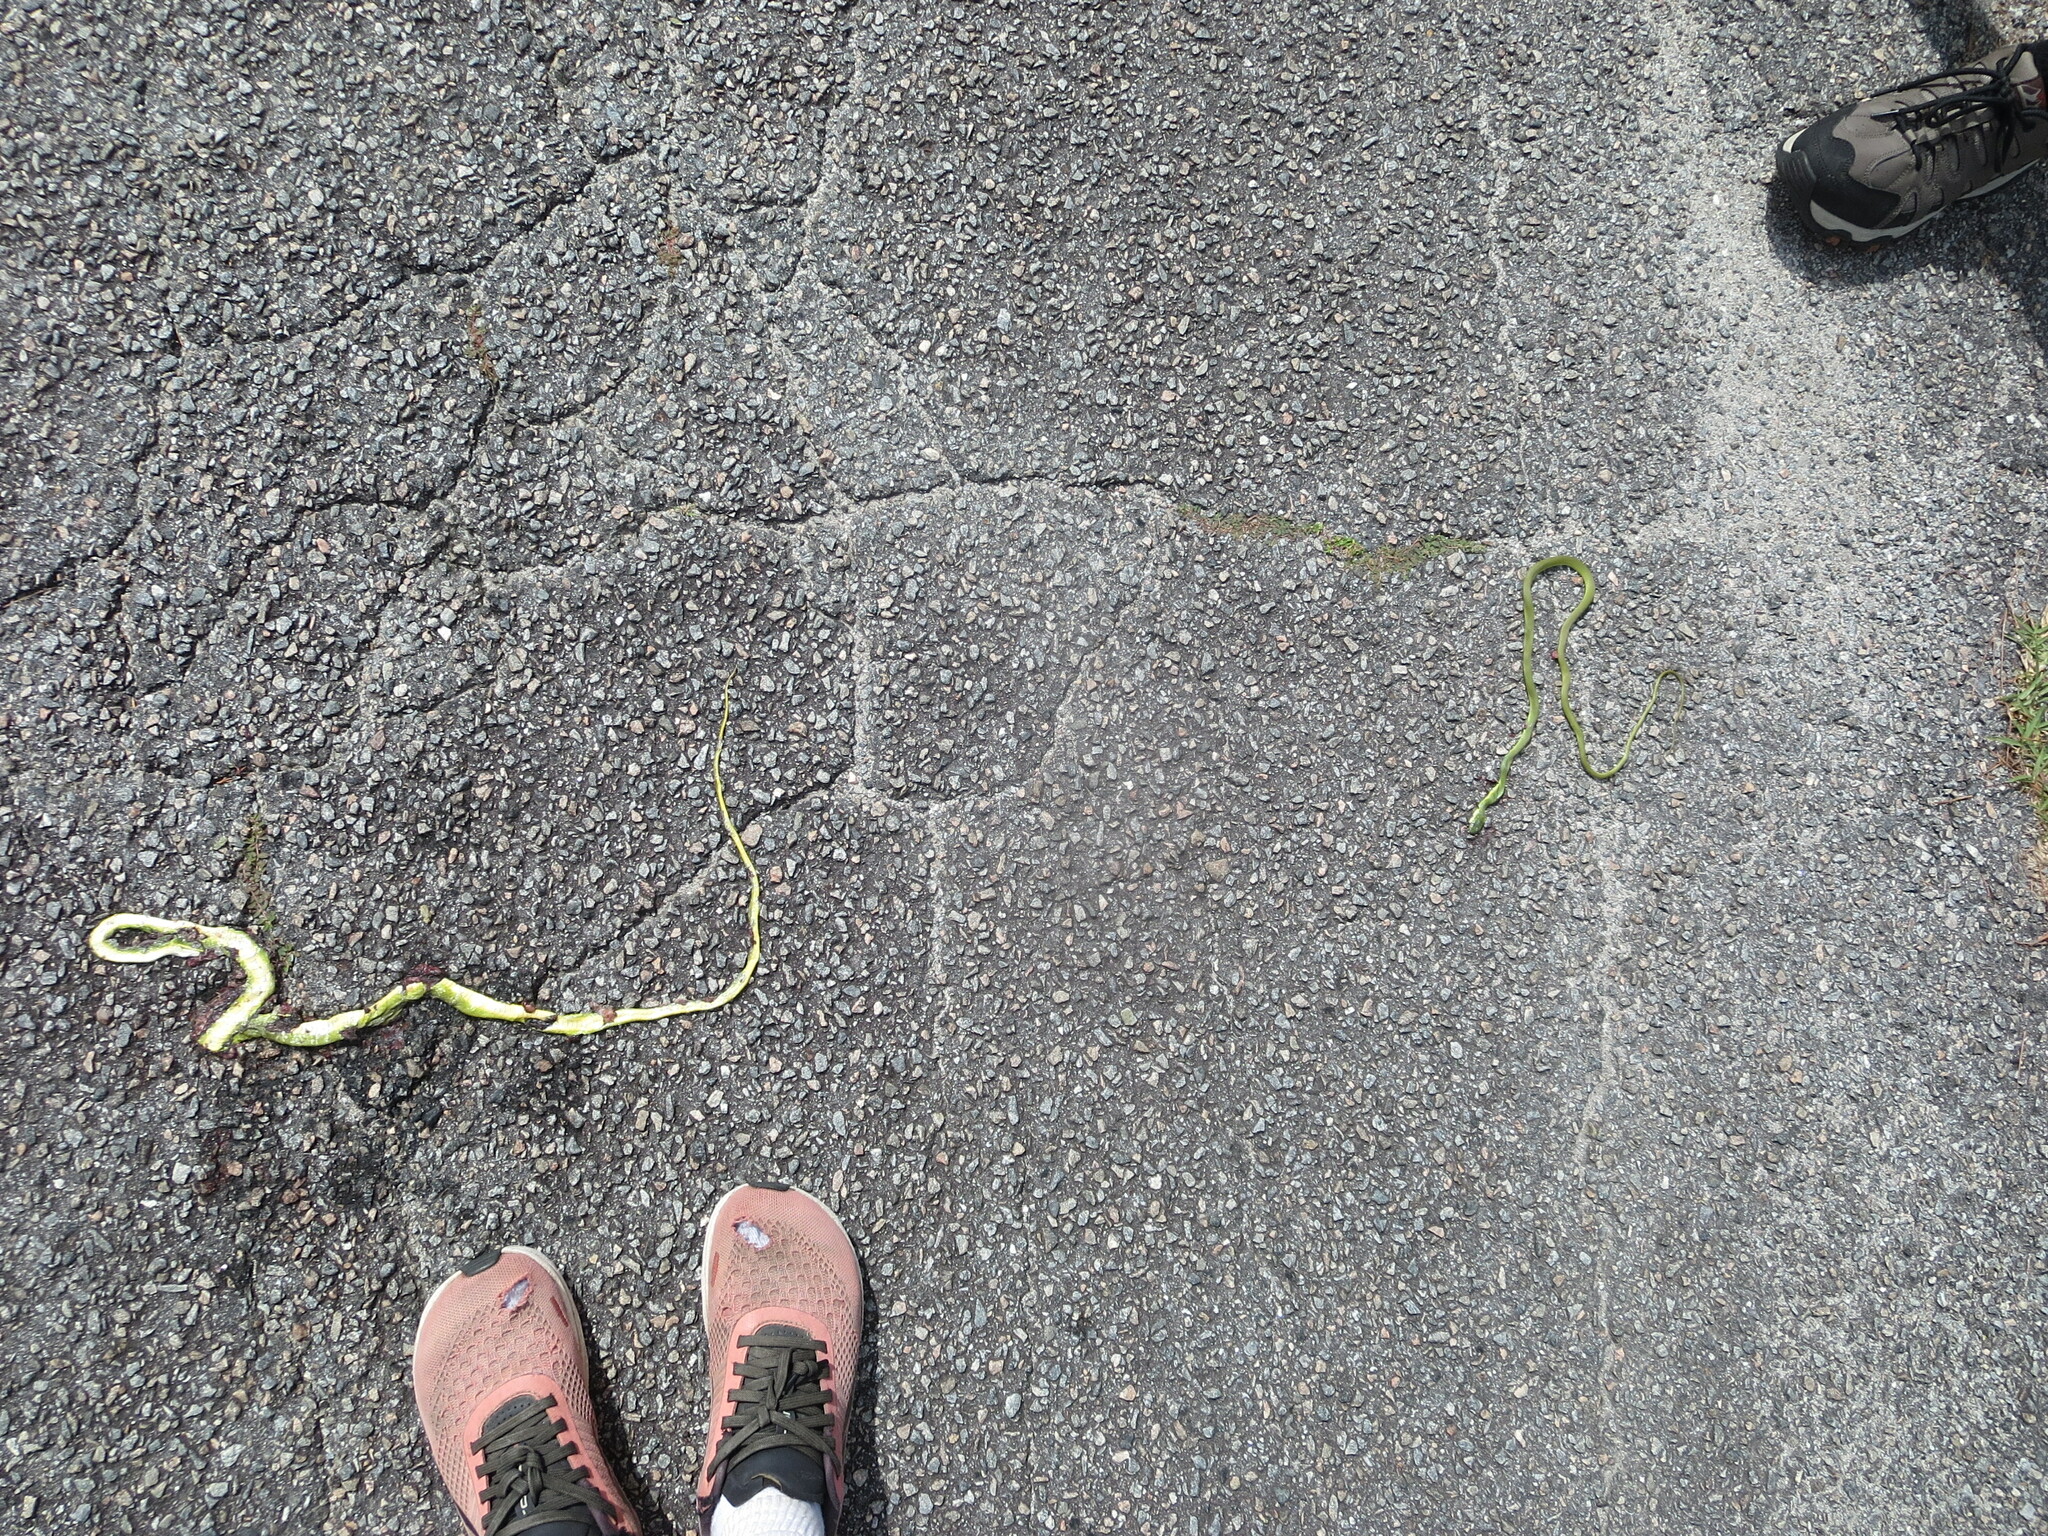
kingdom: Animalia
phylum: Chordata
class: Squamata
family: Colubridae
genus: Opheodrys
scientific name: Opheodrys aestivus
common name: Rough greensnake
